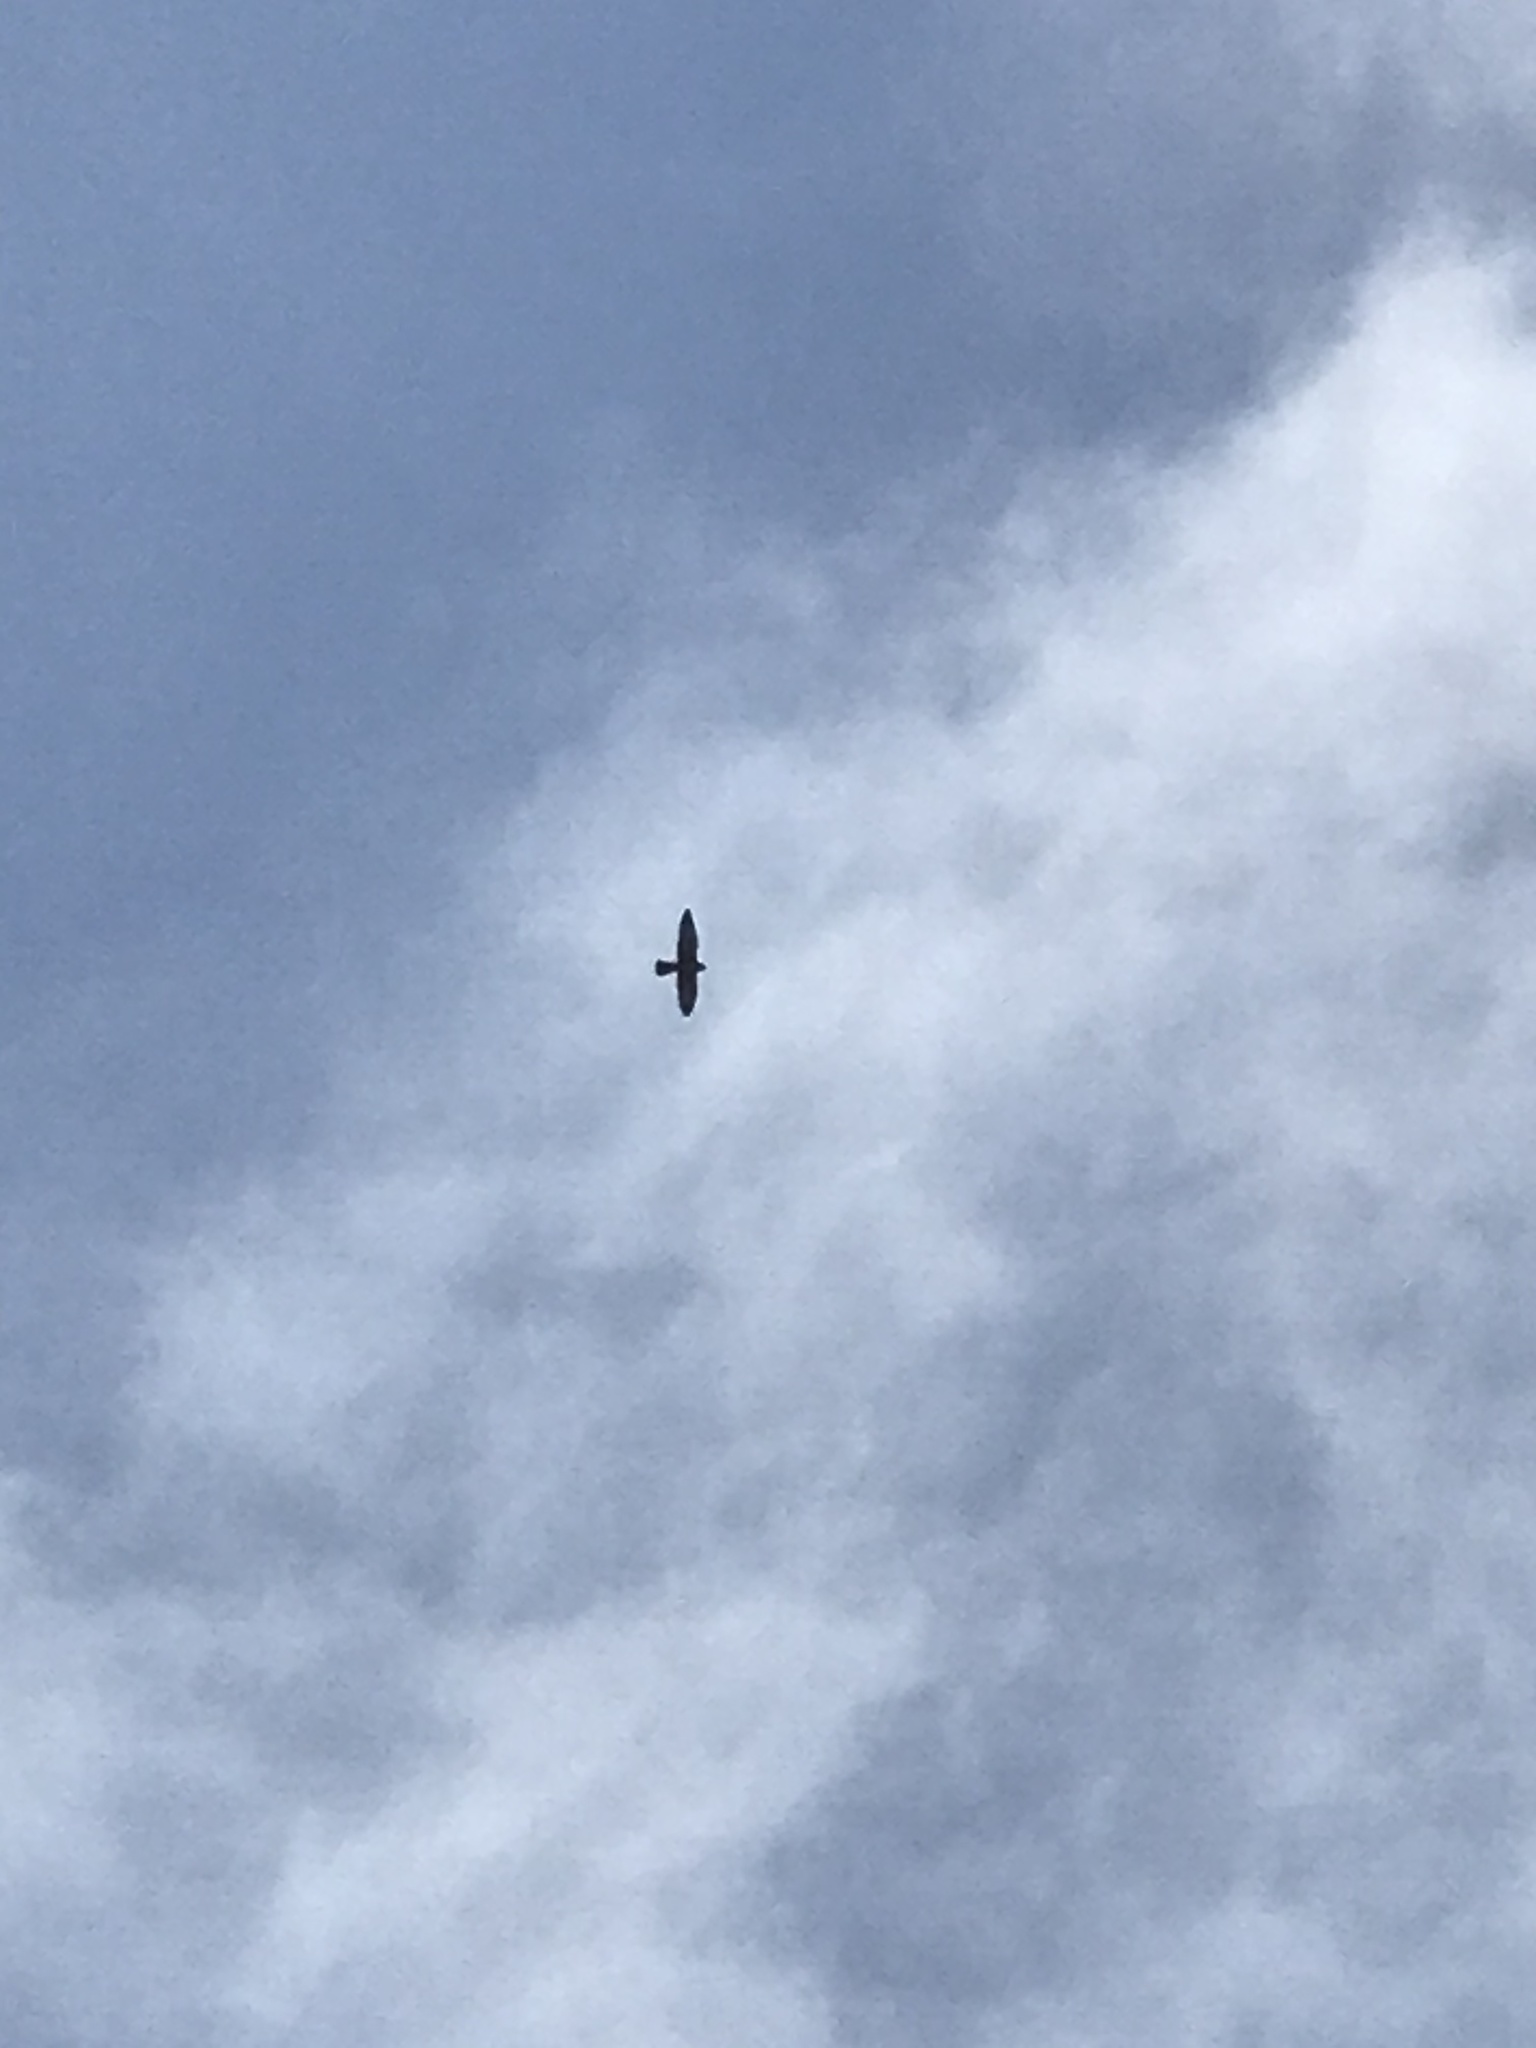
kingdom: Animalia
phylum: Chordata
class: Aves
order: Falconiformes
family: Falconidae
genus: Falco
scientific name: Falco peregrinus
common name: Peregrine falcon
